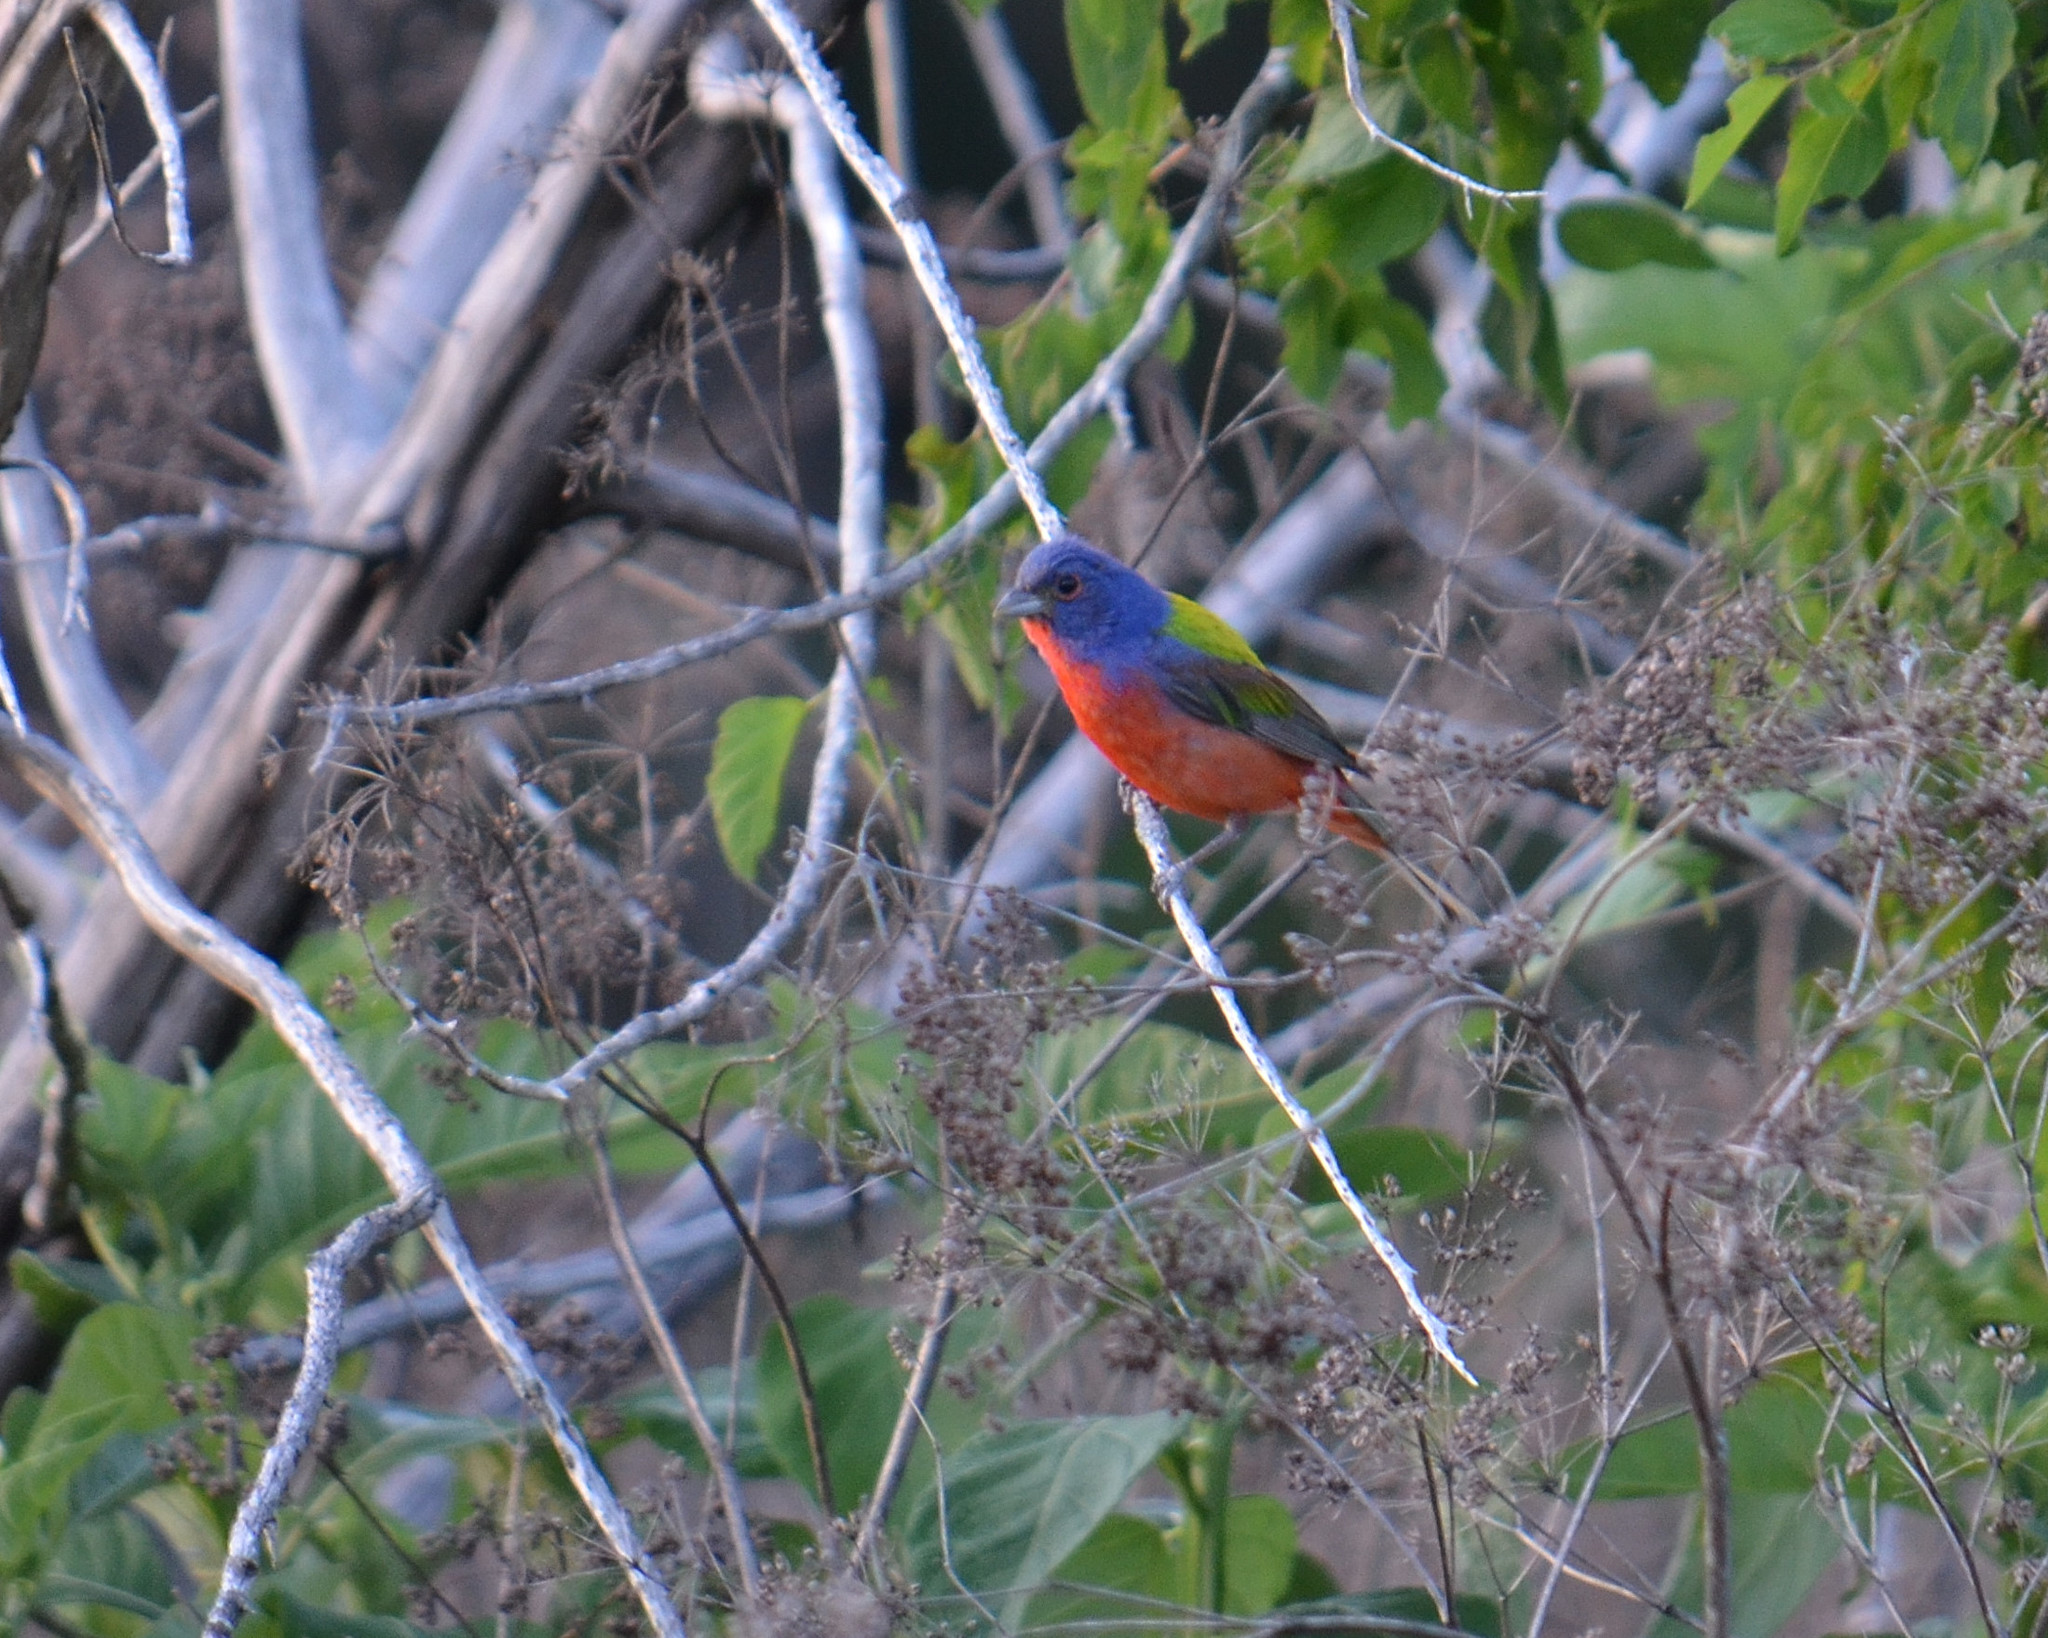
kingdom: Animalia
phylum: Chordata
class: Aves
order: Passeriformes
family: Cardinalidae
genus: Passerina
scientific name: Passerina ciris
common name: Painted bunting
